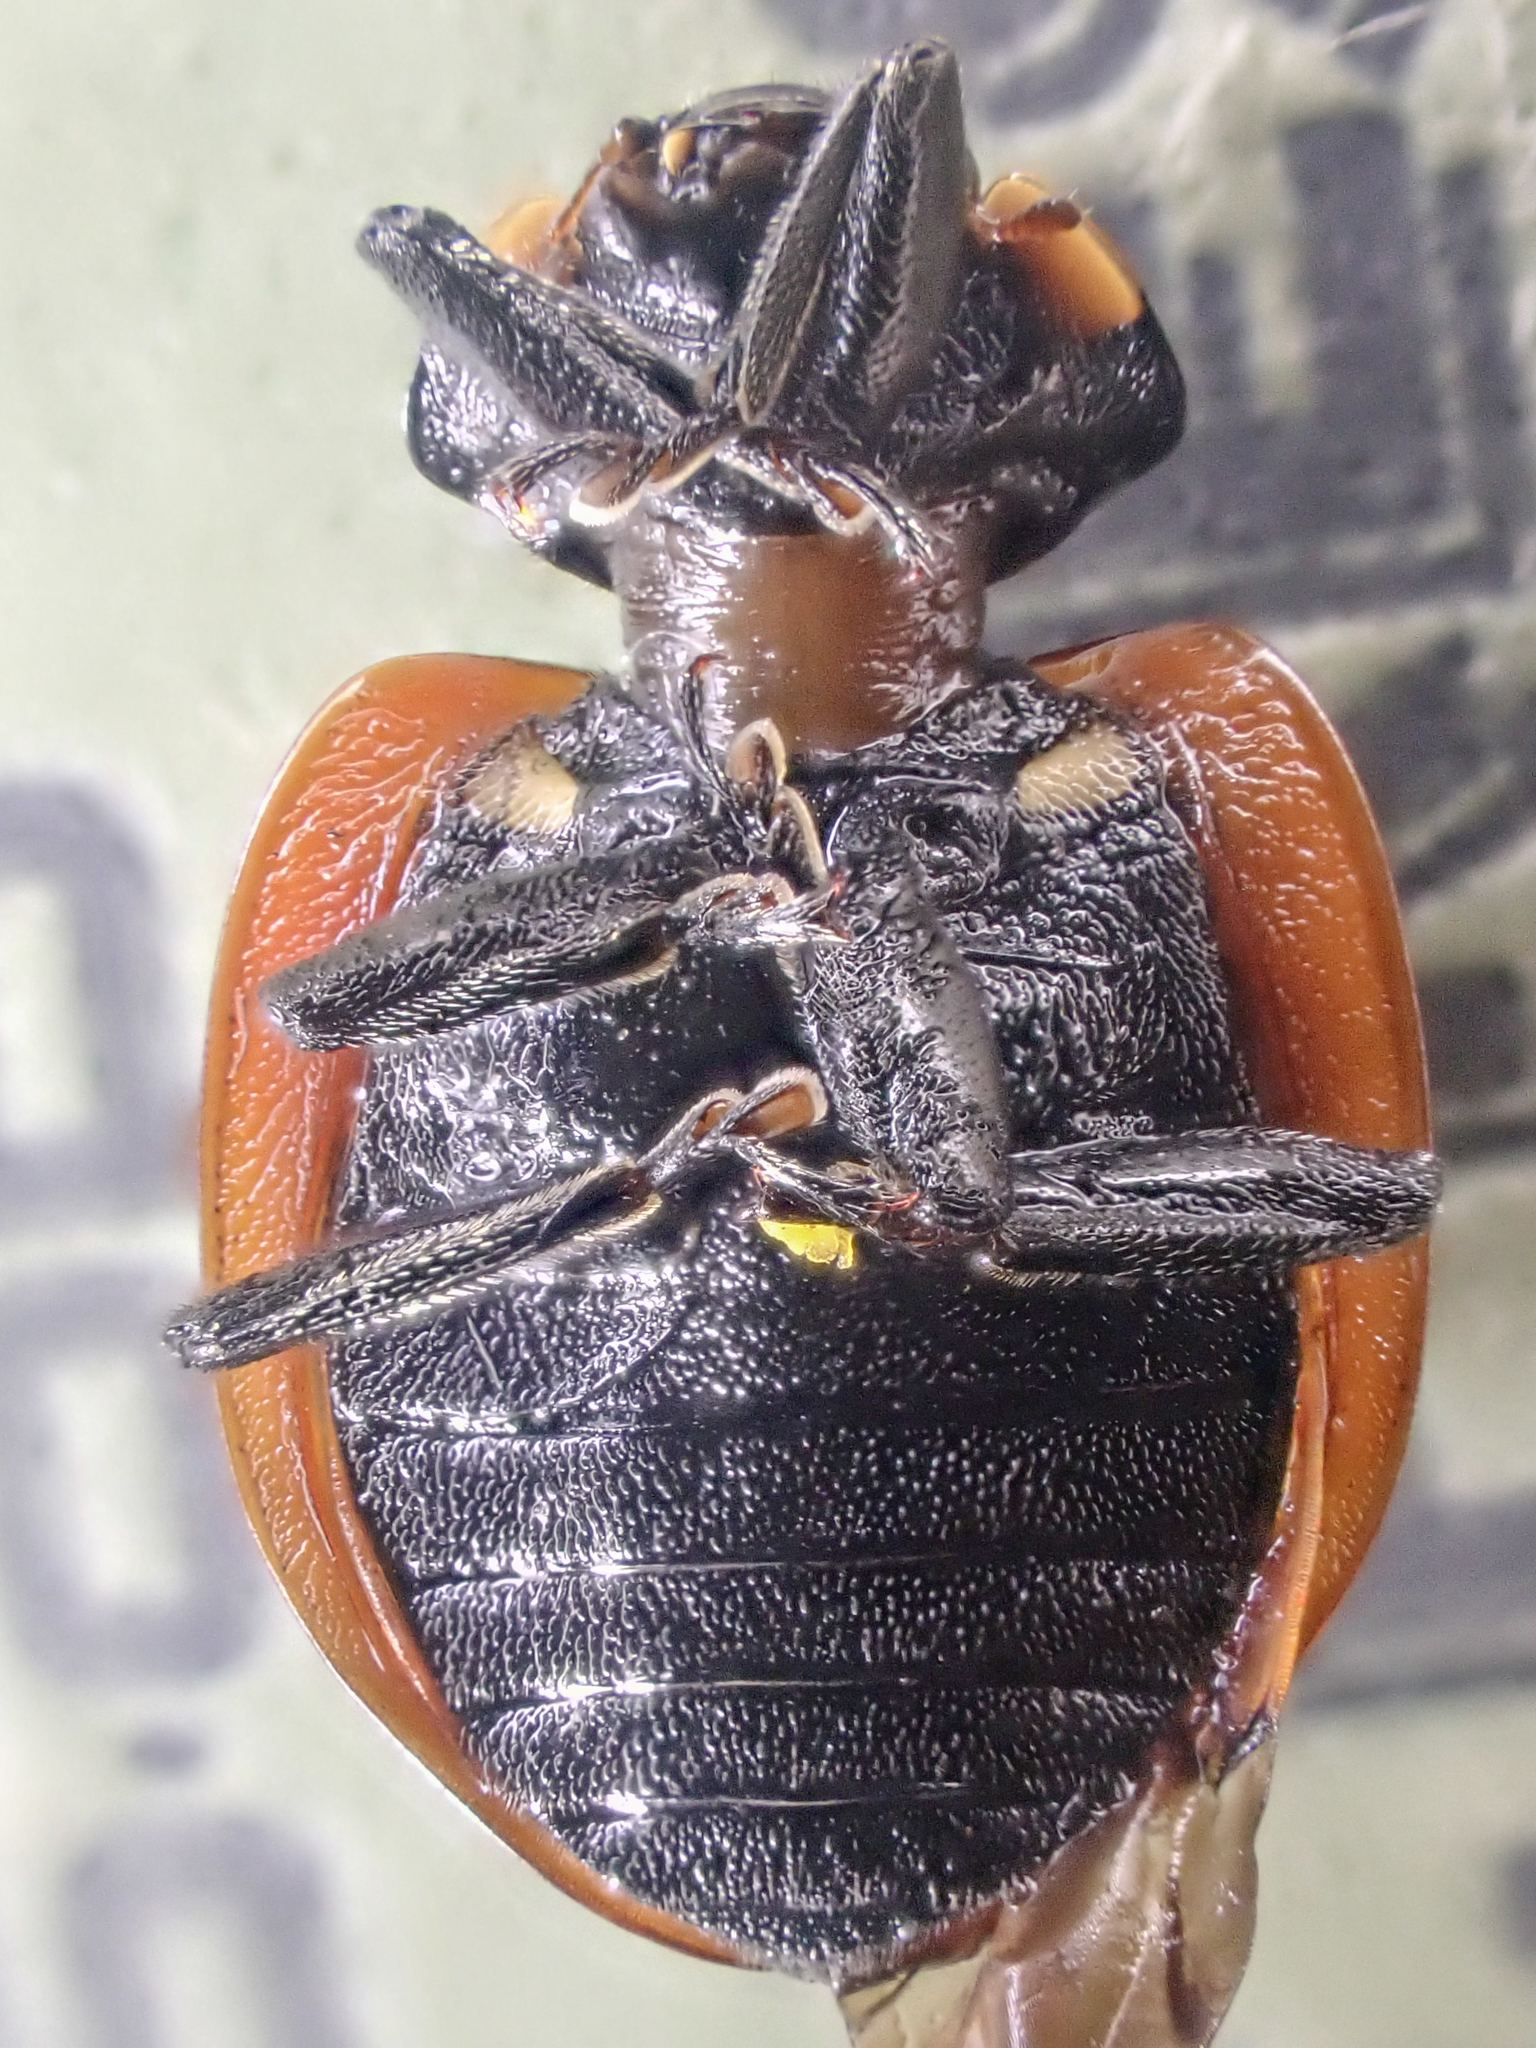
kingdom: Animalia
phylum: Arthropoda
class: Insecta
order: Coleoptera
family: Coccinellidae
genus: Coccinella
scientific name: Coccinella monticola
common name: Mountain lady beetle
